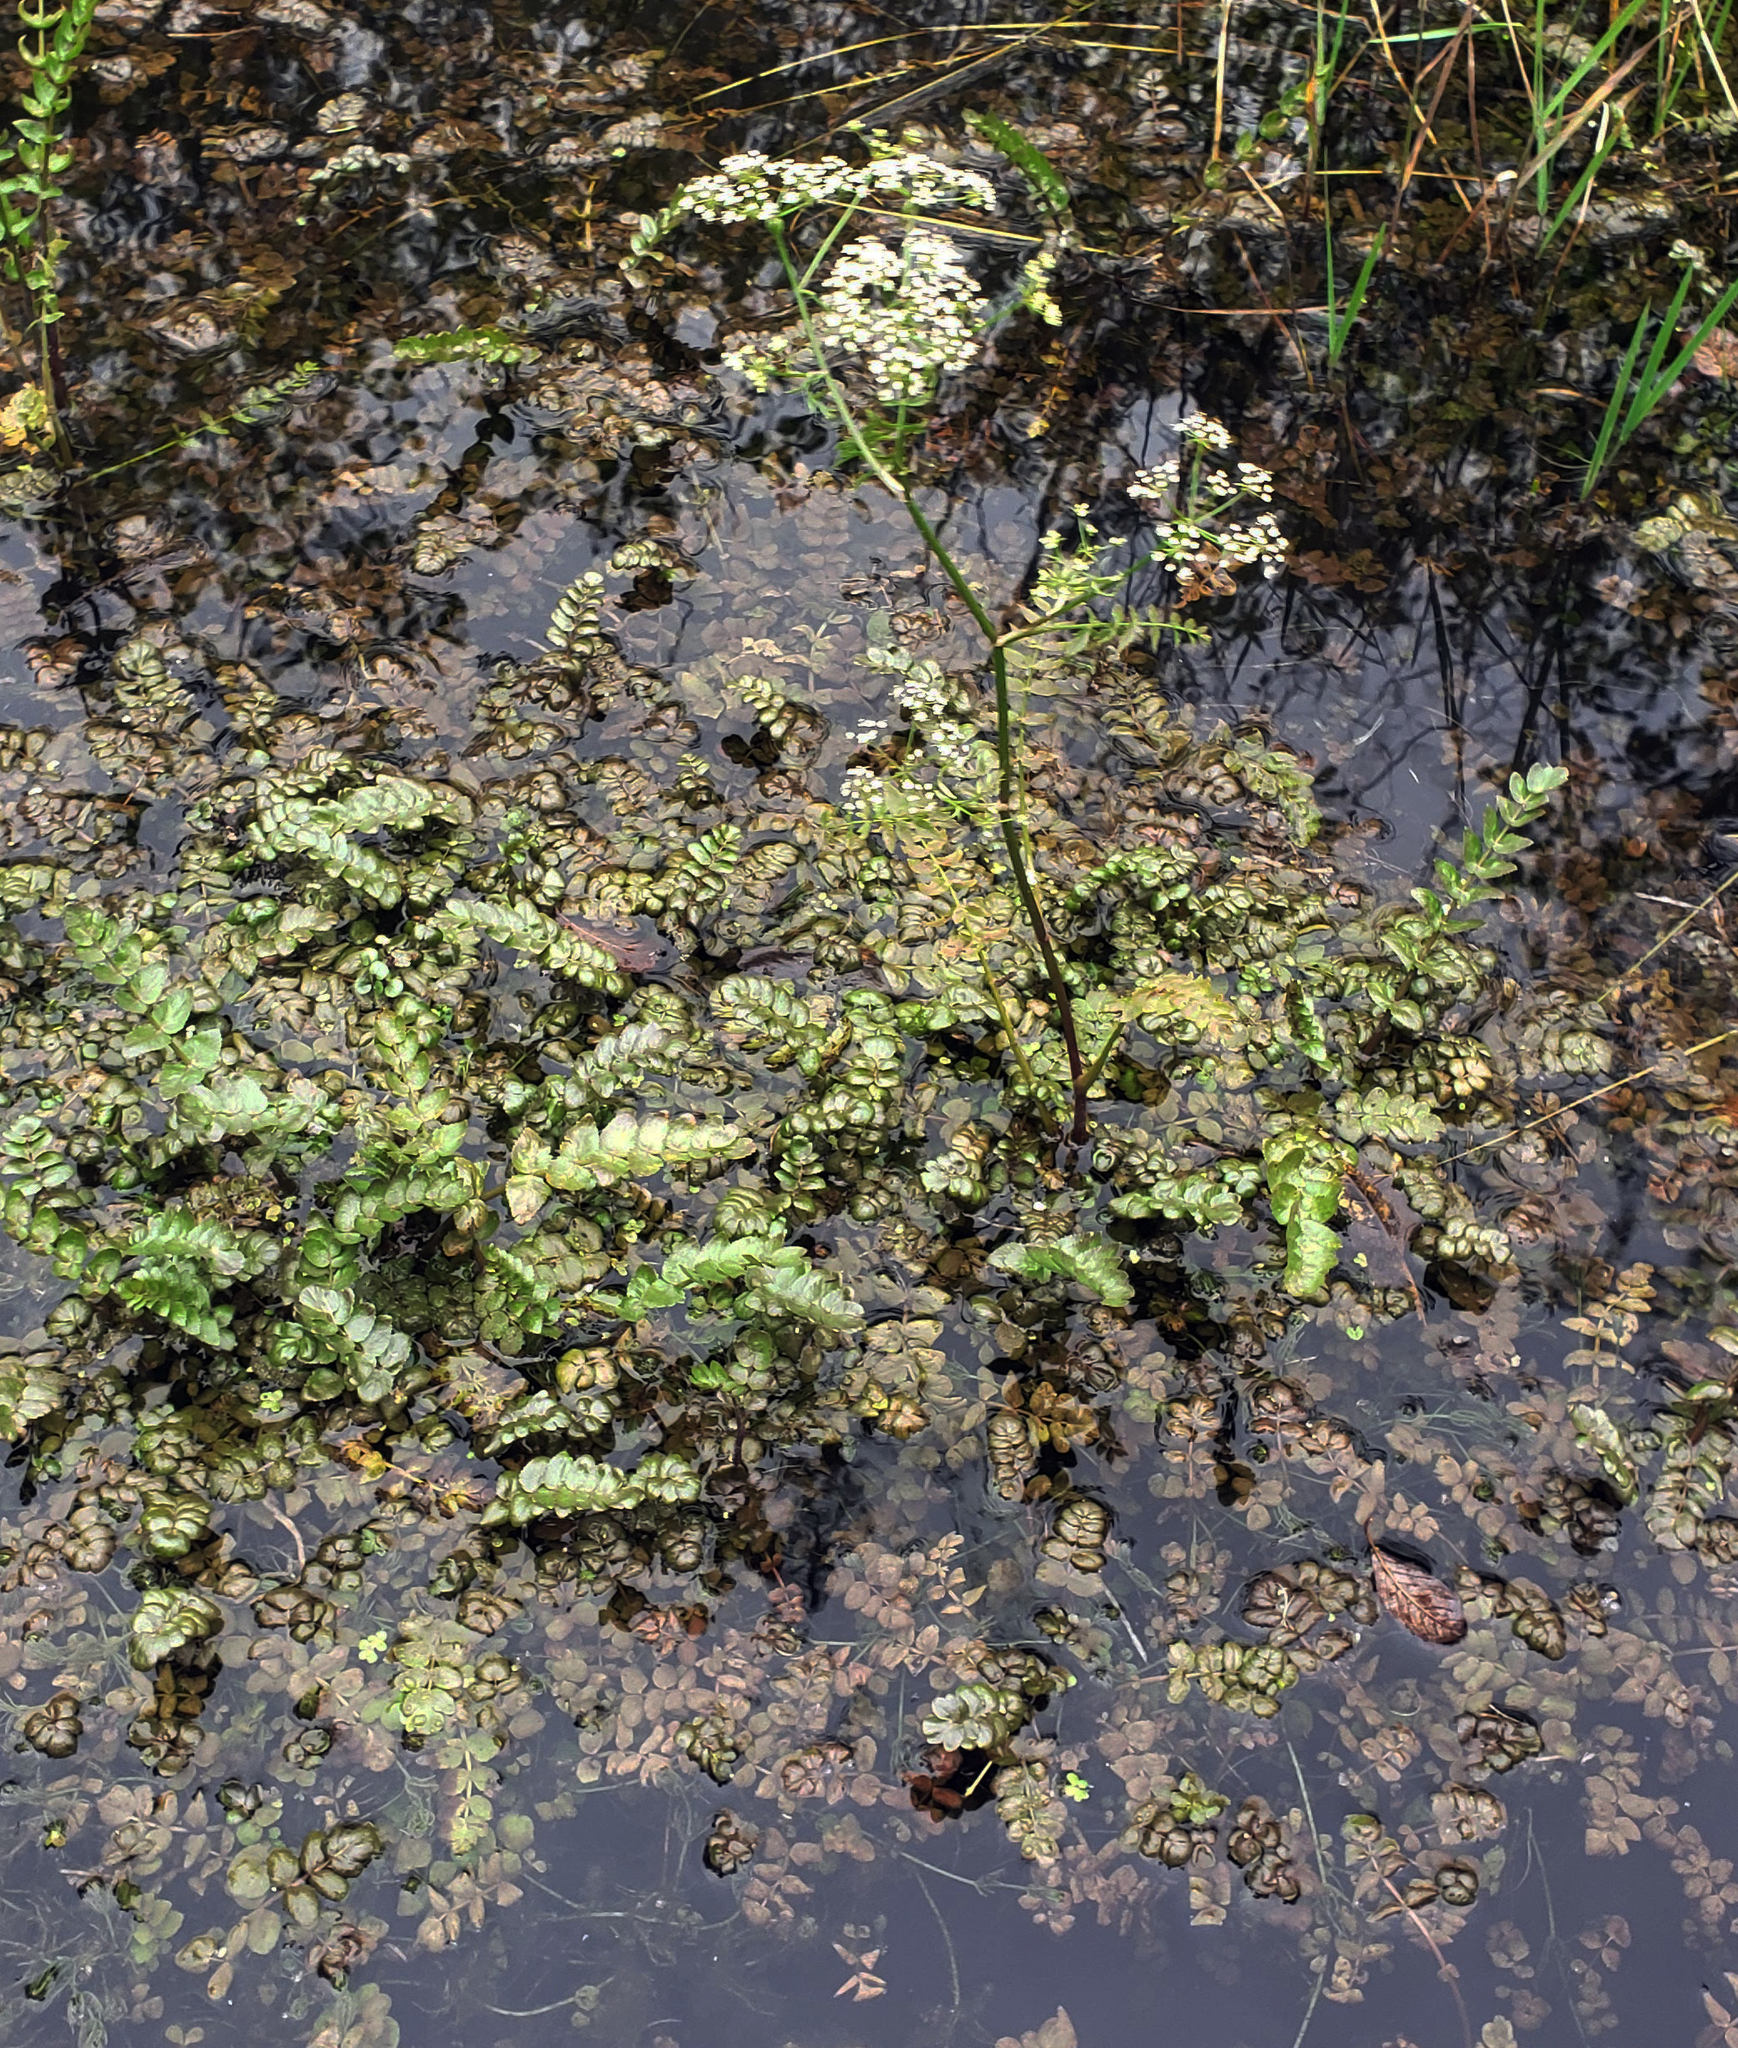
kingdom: Plantae
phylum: Tracheophyta
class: Magnoliopsida
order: Brassicales
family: Brassicaceae
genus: Nasturtium
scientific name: Nasturtium officinale
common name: Watercress
